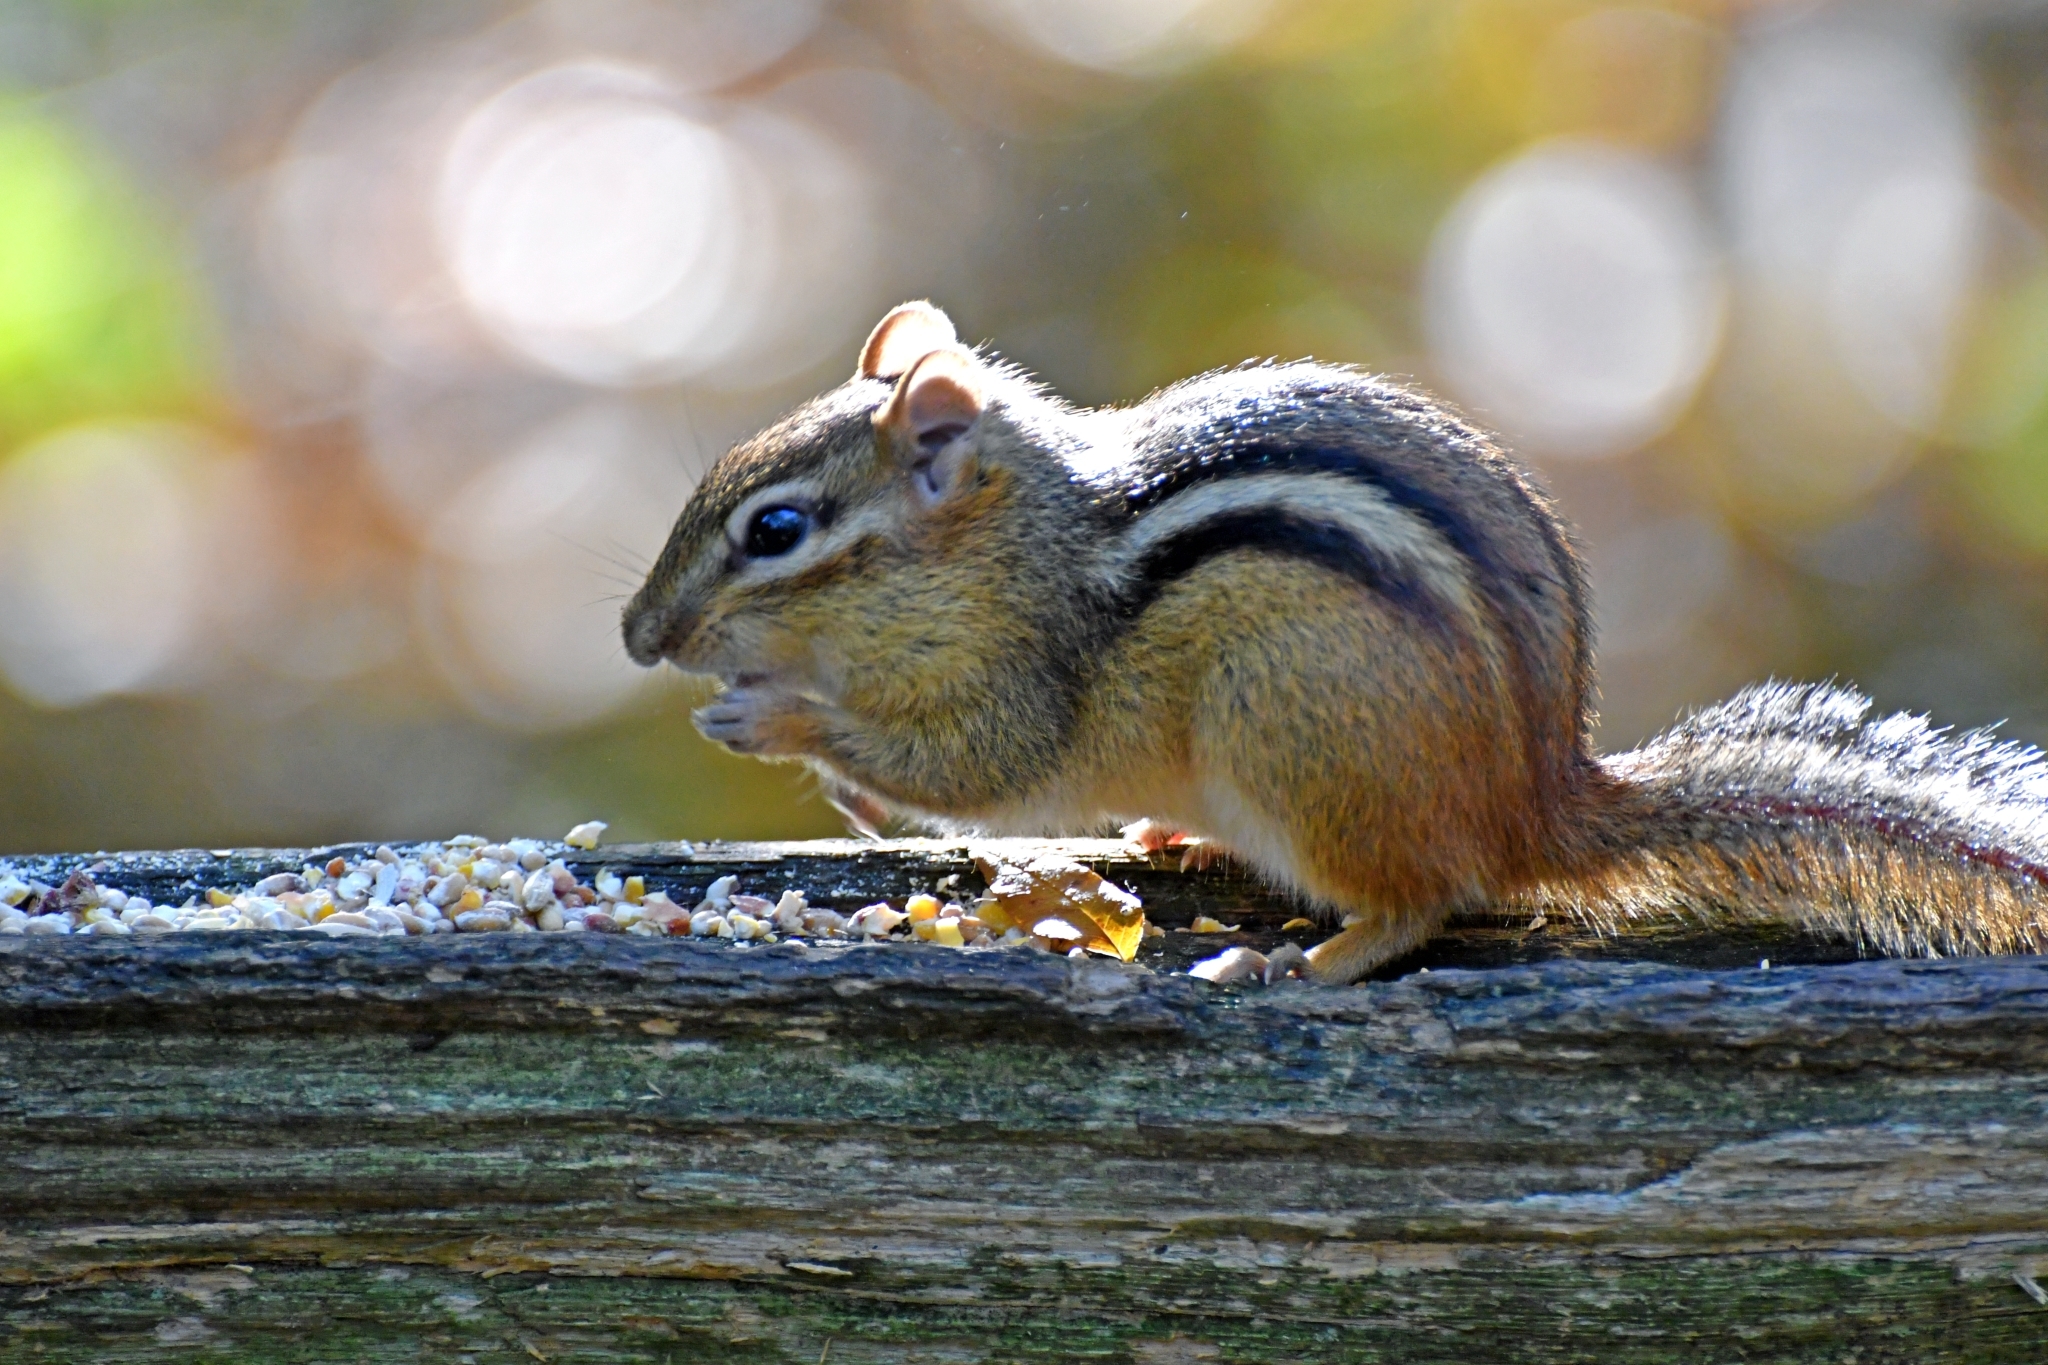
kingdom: Animalia
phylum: Chordata
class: Mammalia
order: Rodentia
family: Sciuridae
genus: Tamias
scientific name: Tamias striatus
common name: Eastern chipmunk
